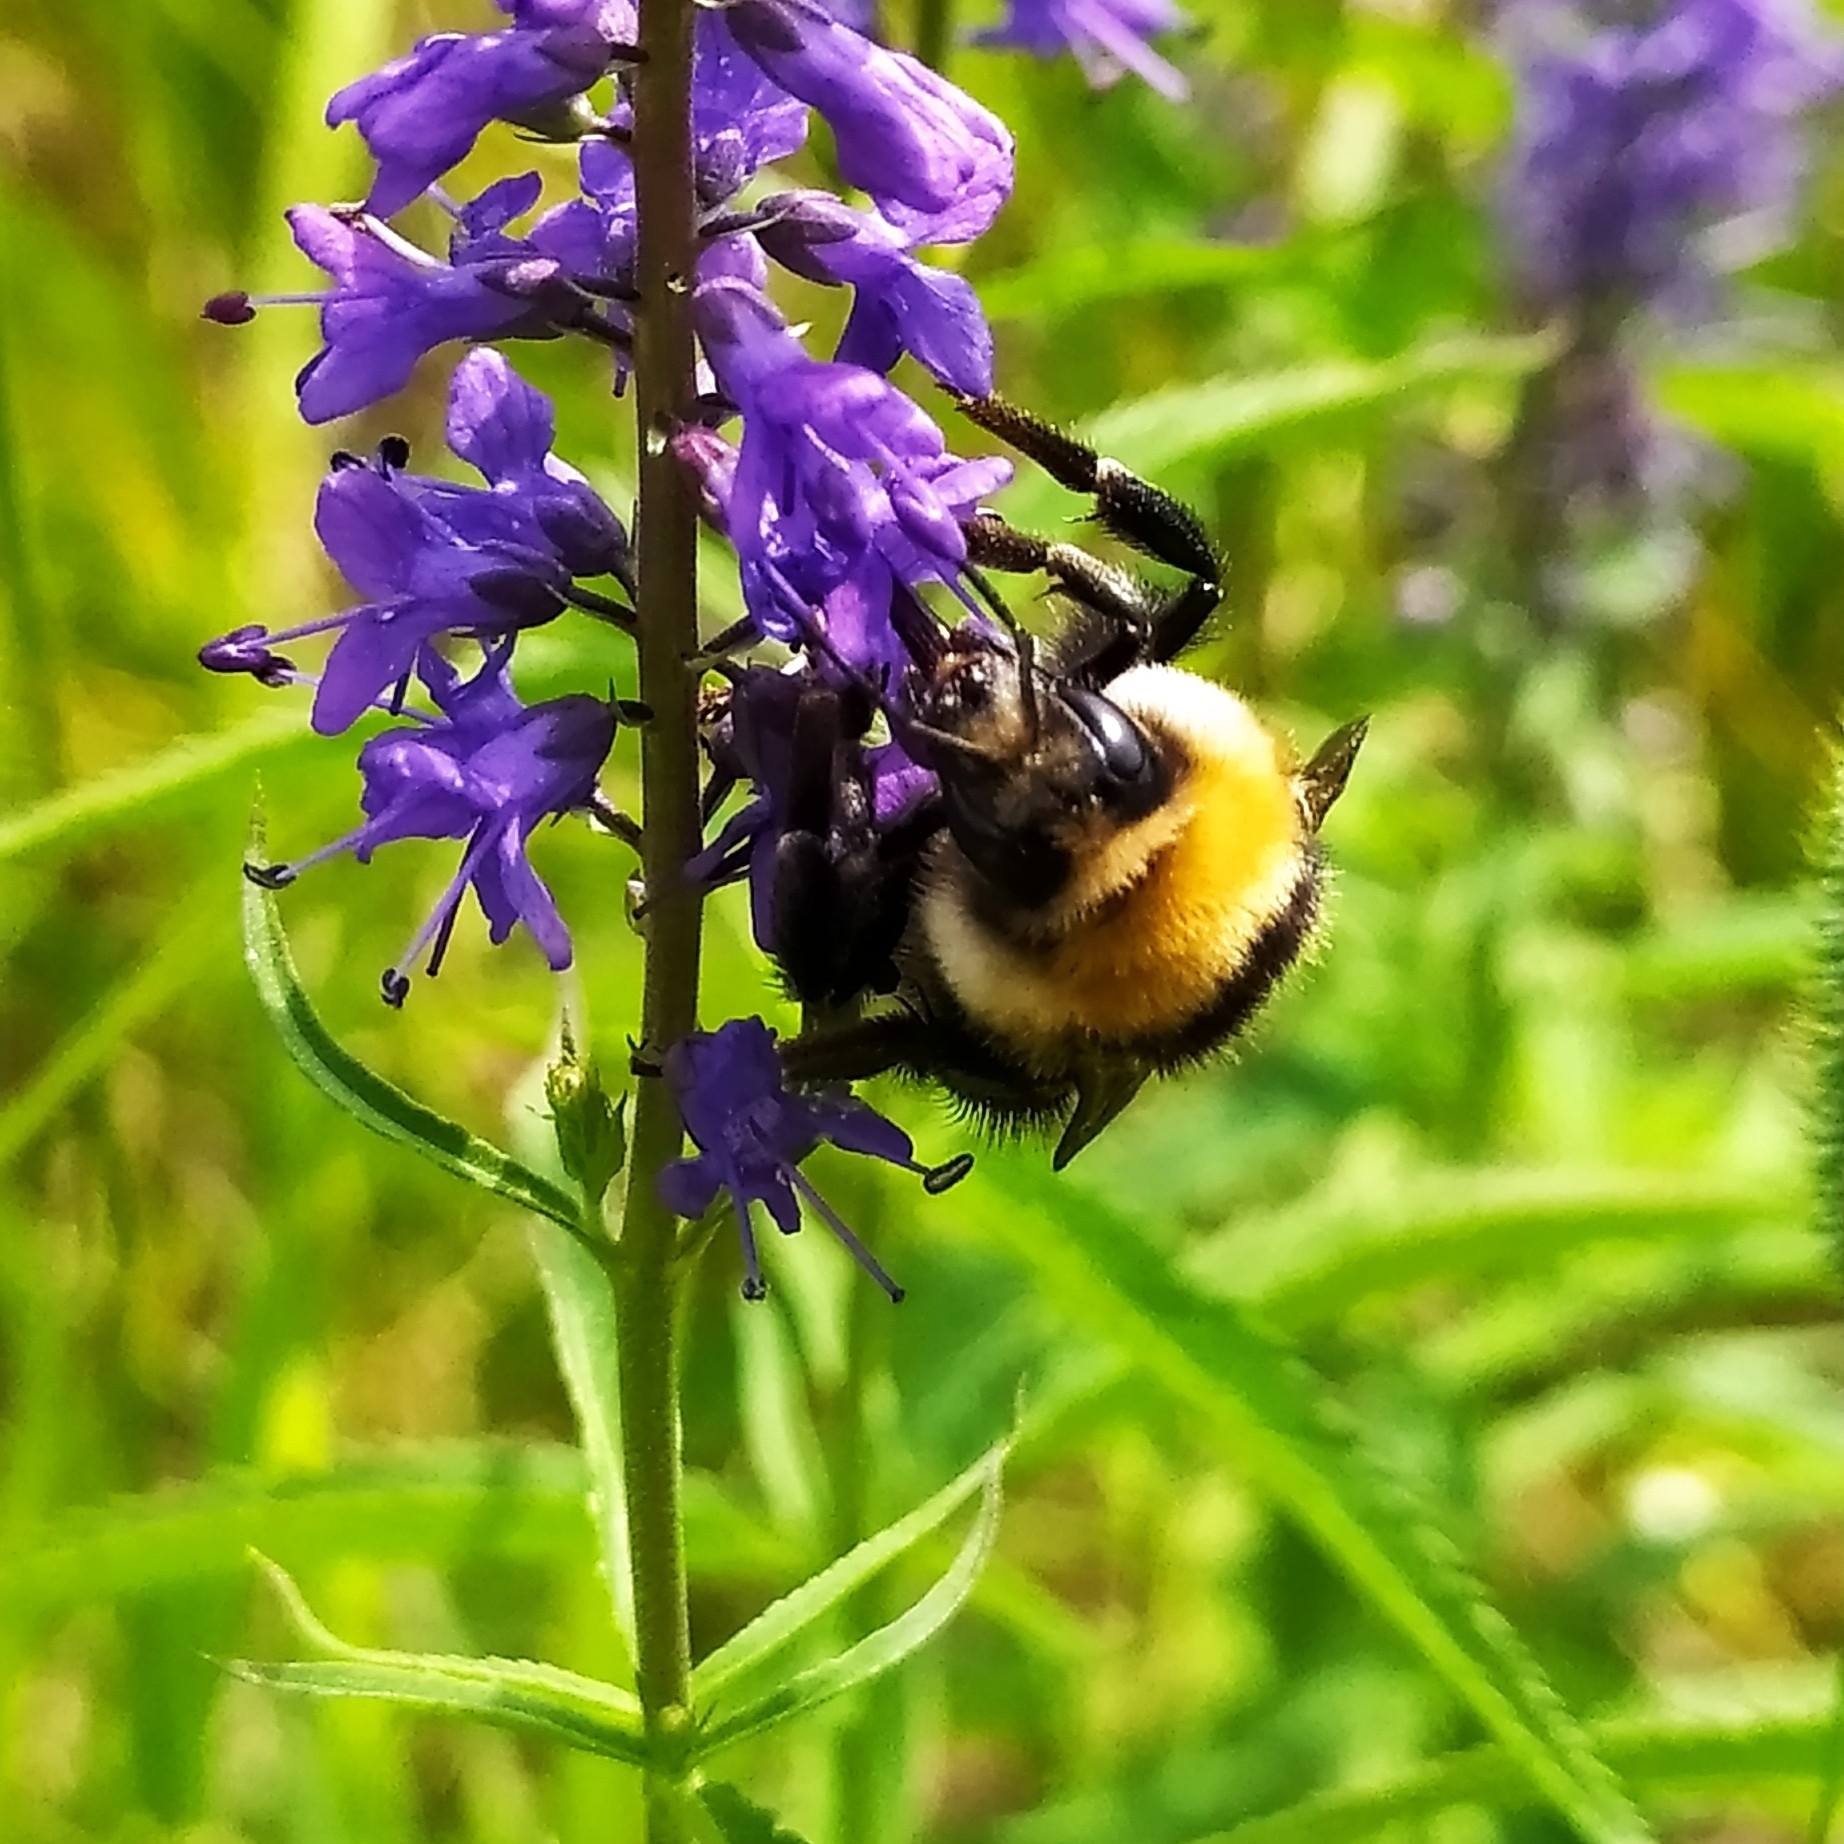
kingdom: Animalia
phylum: Arthropoda
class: Insecta
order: Hymenoptera
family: Apidae
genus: Bombus
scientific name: Bombus distinguendus
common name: Great yellow humble-bee
